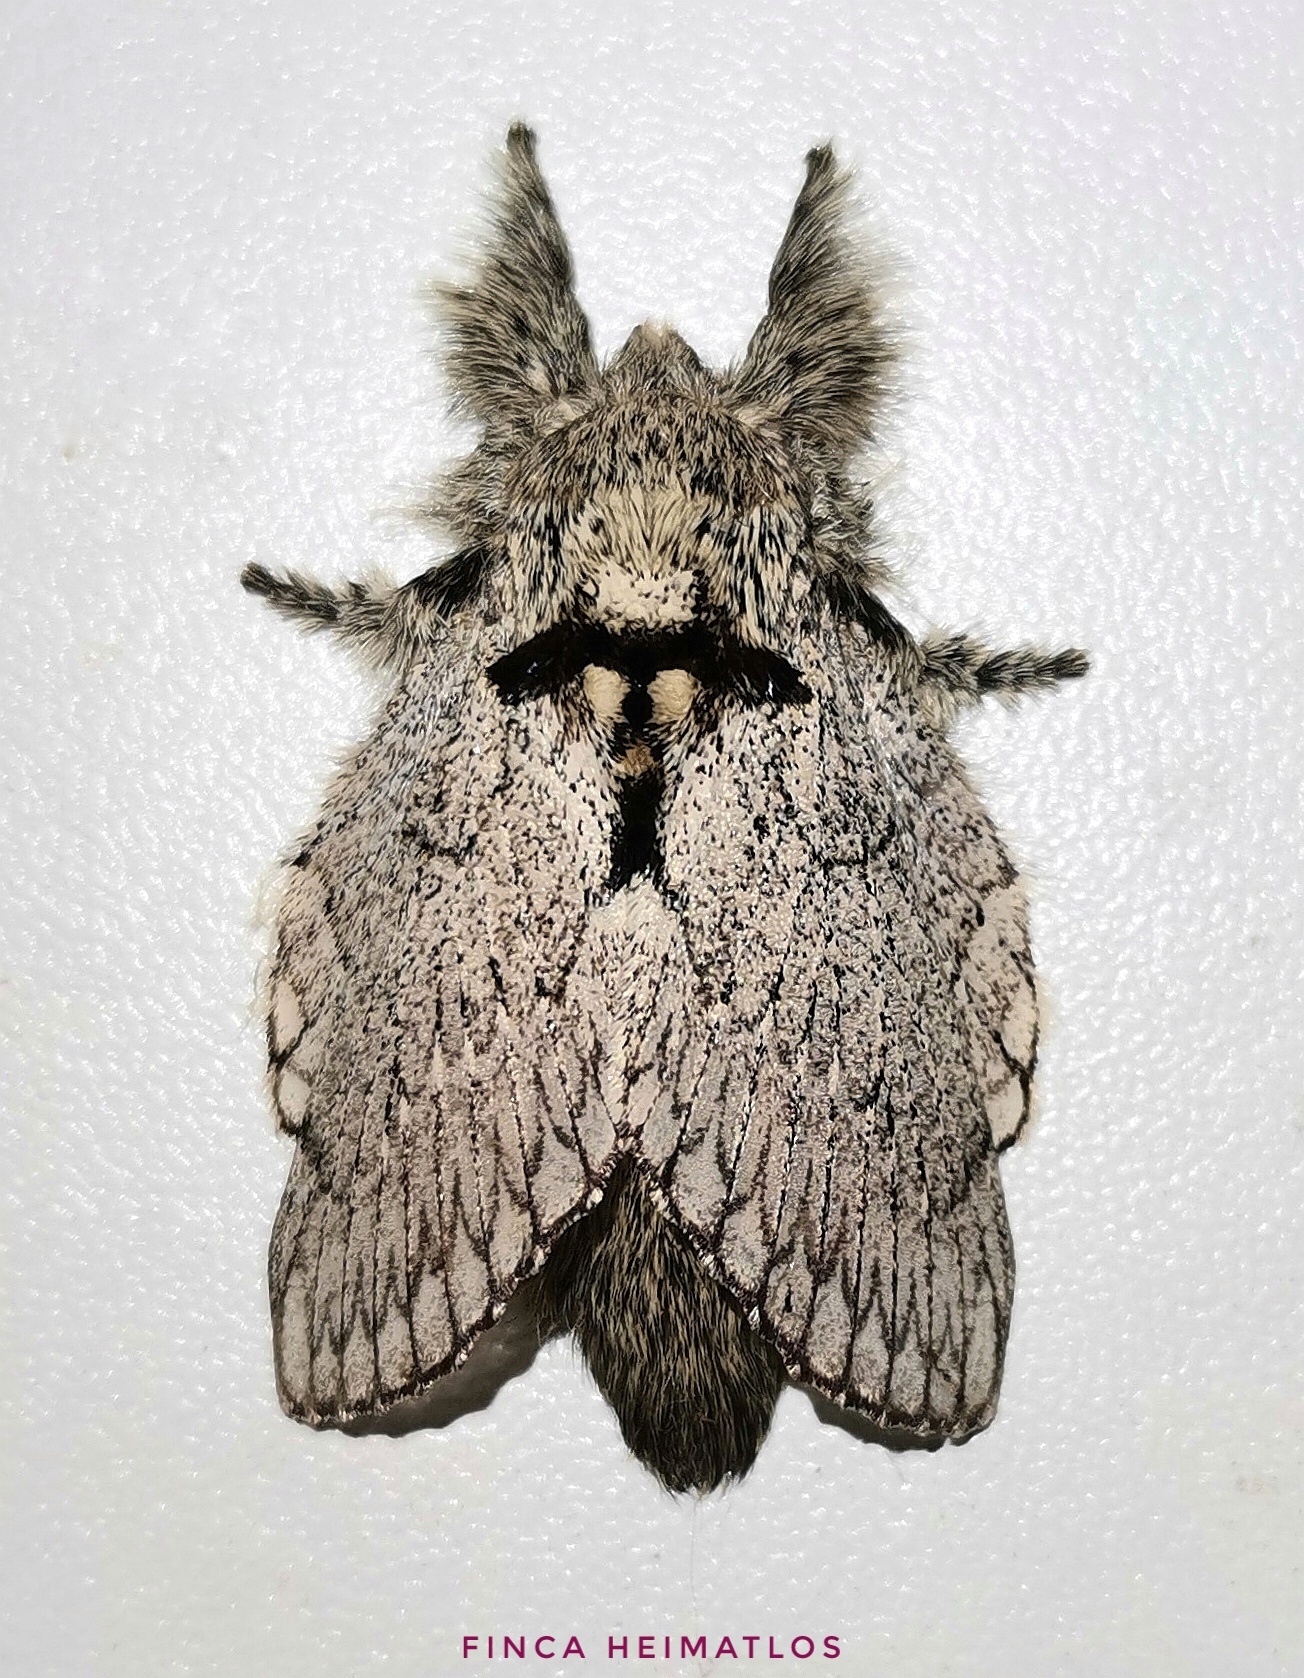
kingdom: Animalia
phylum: Arthropoda
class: Insecta
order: Lepidoptera
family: Lasiocampidae
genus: Euglyphis
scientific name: Euglyphis phidonia
